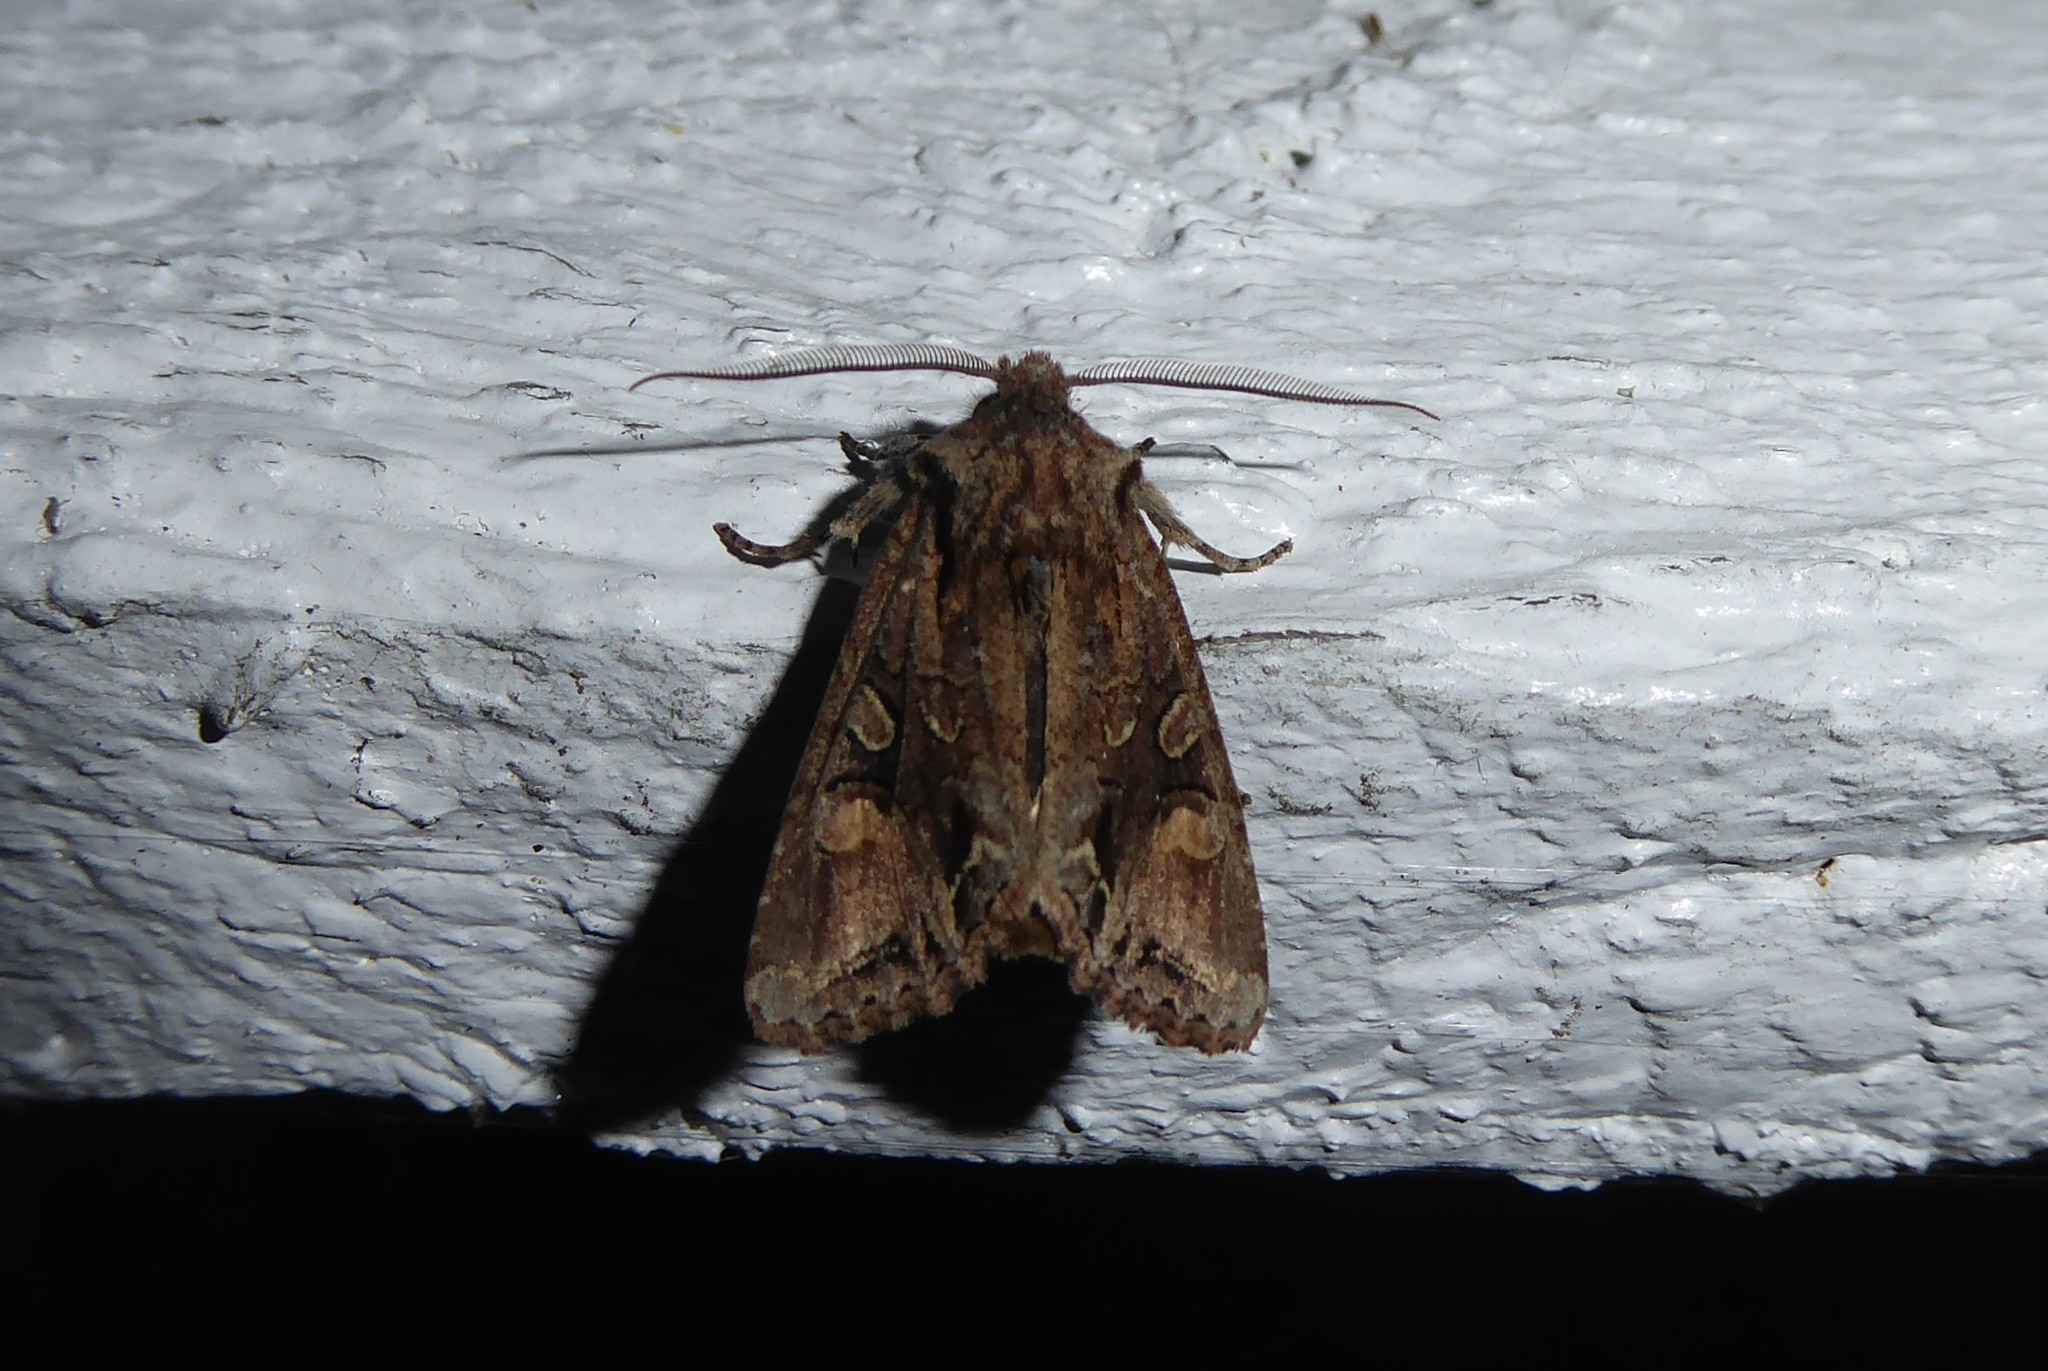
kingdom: Animalia
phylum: Arthropoda
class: Insecta
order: Lepidoptera
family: Noctuidae
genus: Ichneutica
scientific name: Ichneutica
